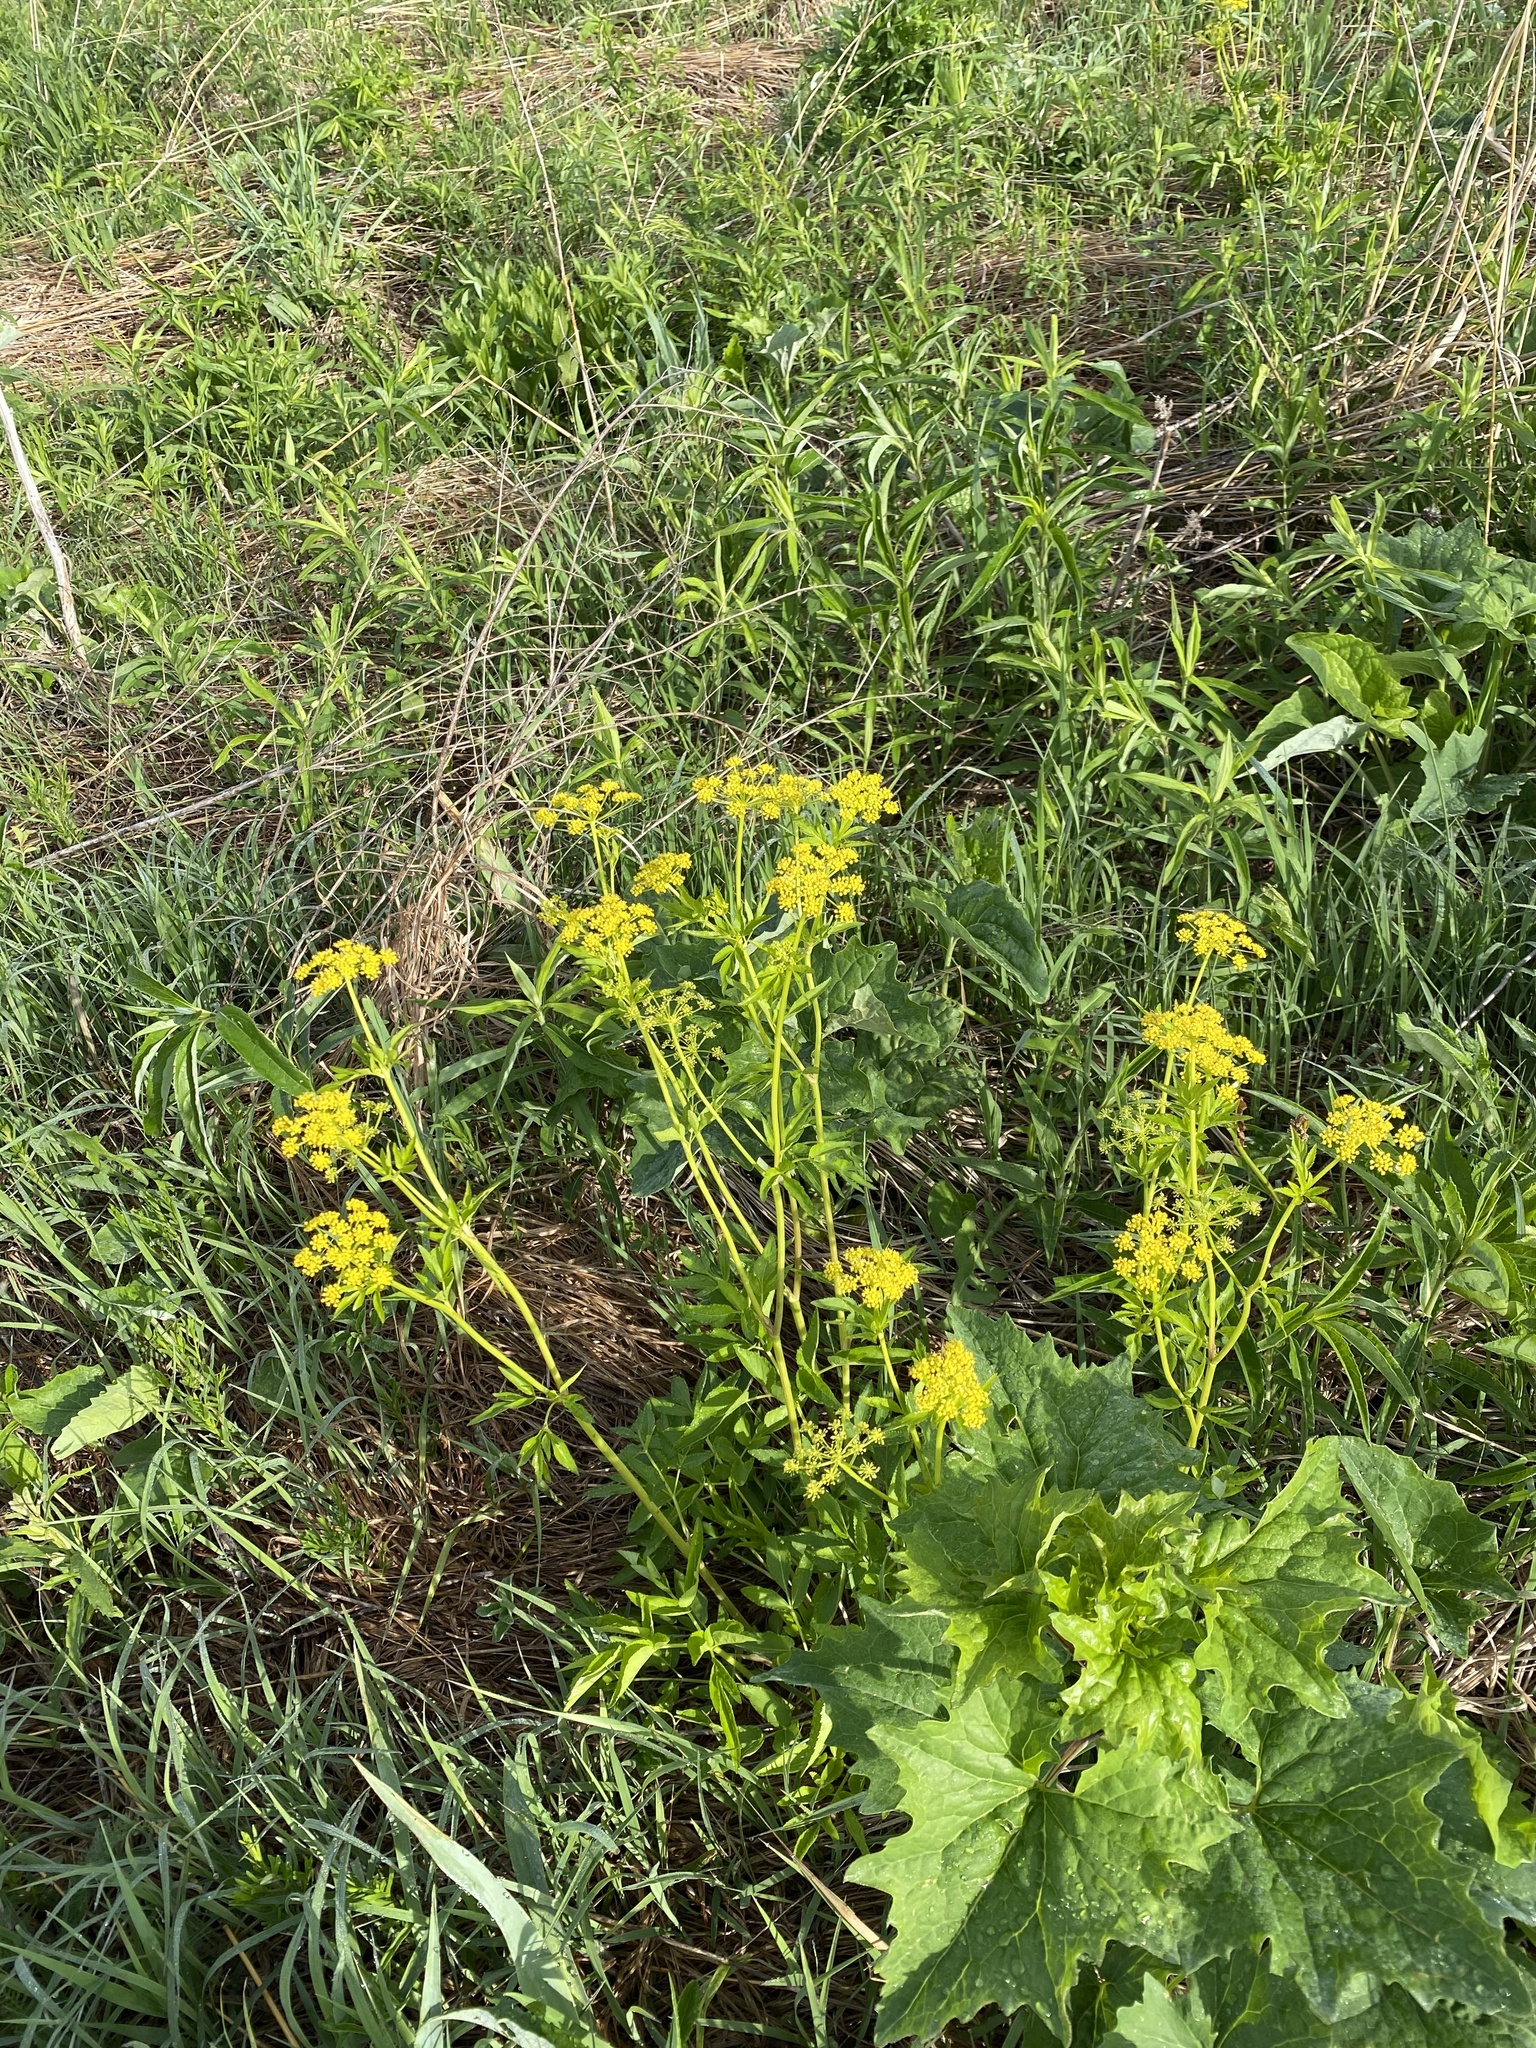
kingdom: Plantae
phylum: Tracheophyta
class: Magnoliopsida
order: Apiales
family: Apiaceae
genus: Zizia
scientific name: Zizia aurea
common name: Golden alexanders
